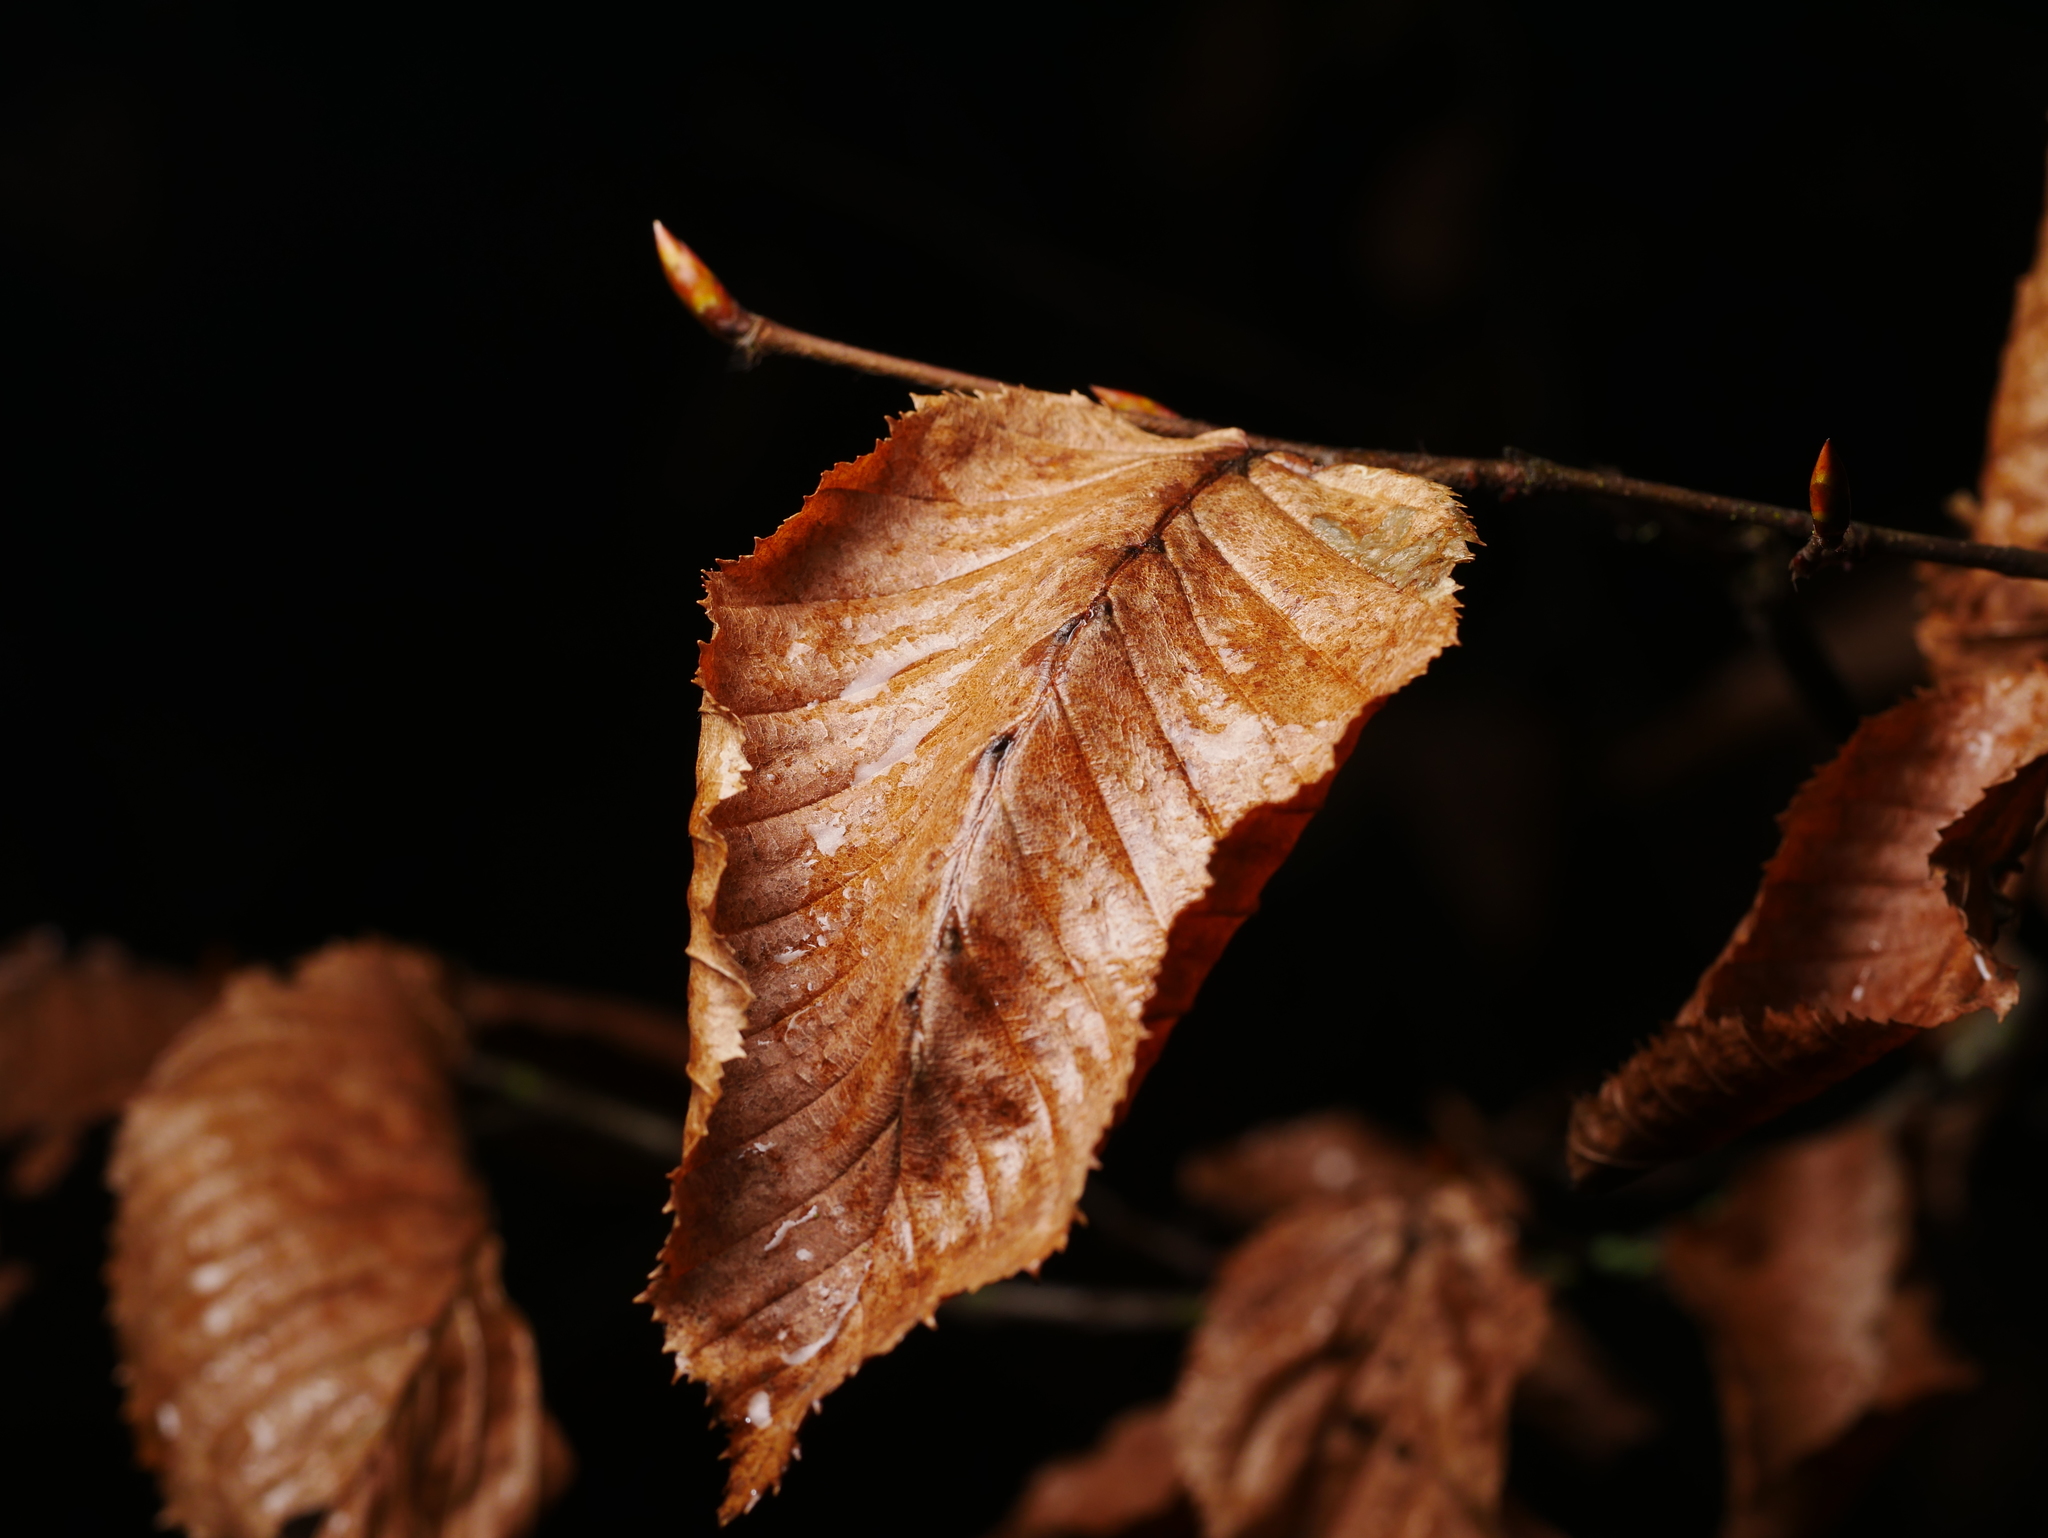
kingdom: Plantae
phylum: Tracheophyta
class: Magnoliopsida
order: Fagales
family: Betulaceae
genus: Carpinus
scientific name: Carpinus betulus
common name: Hornbeam
